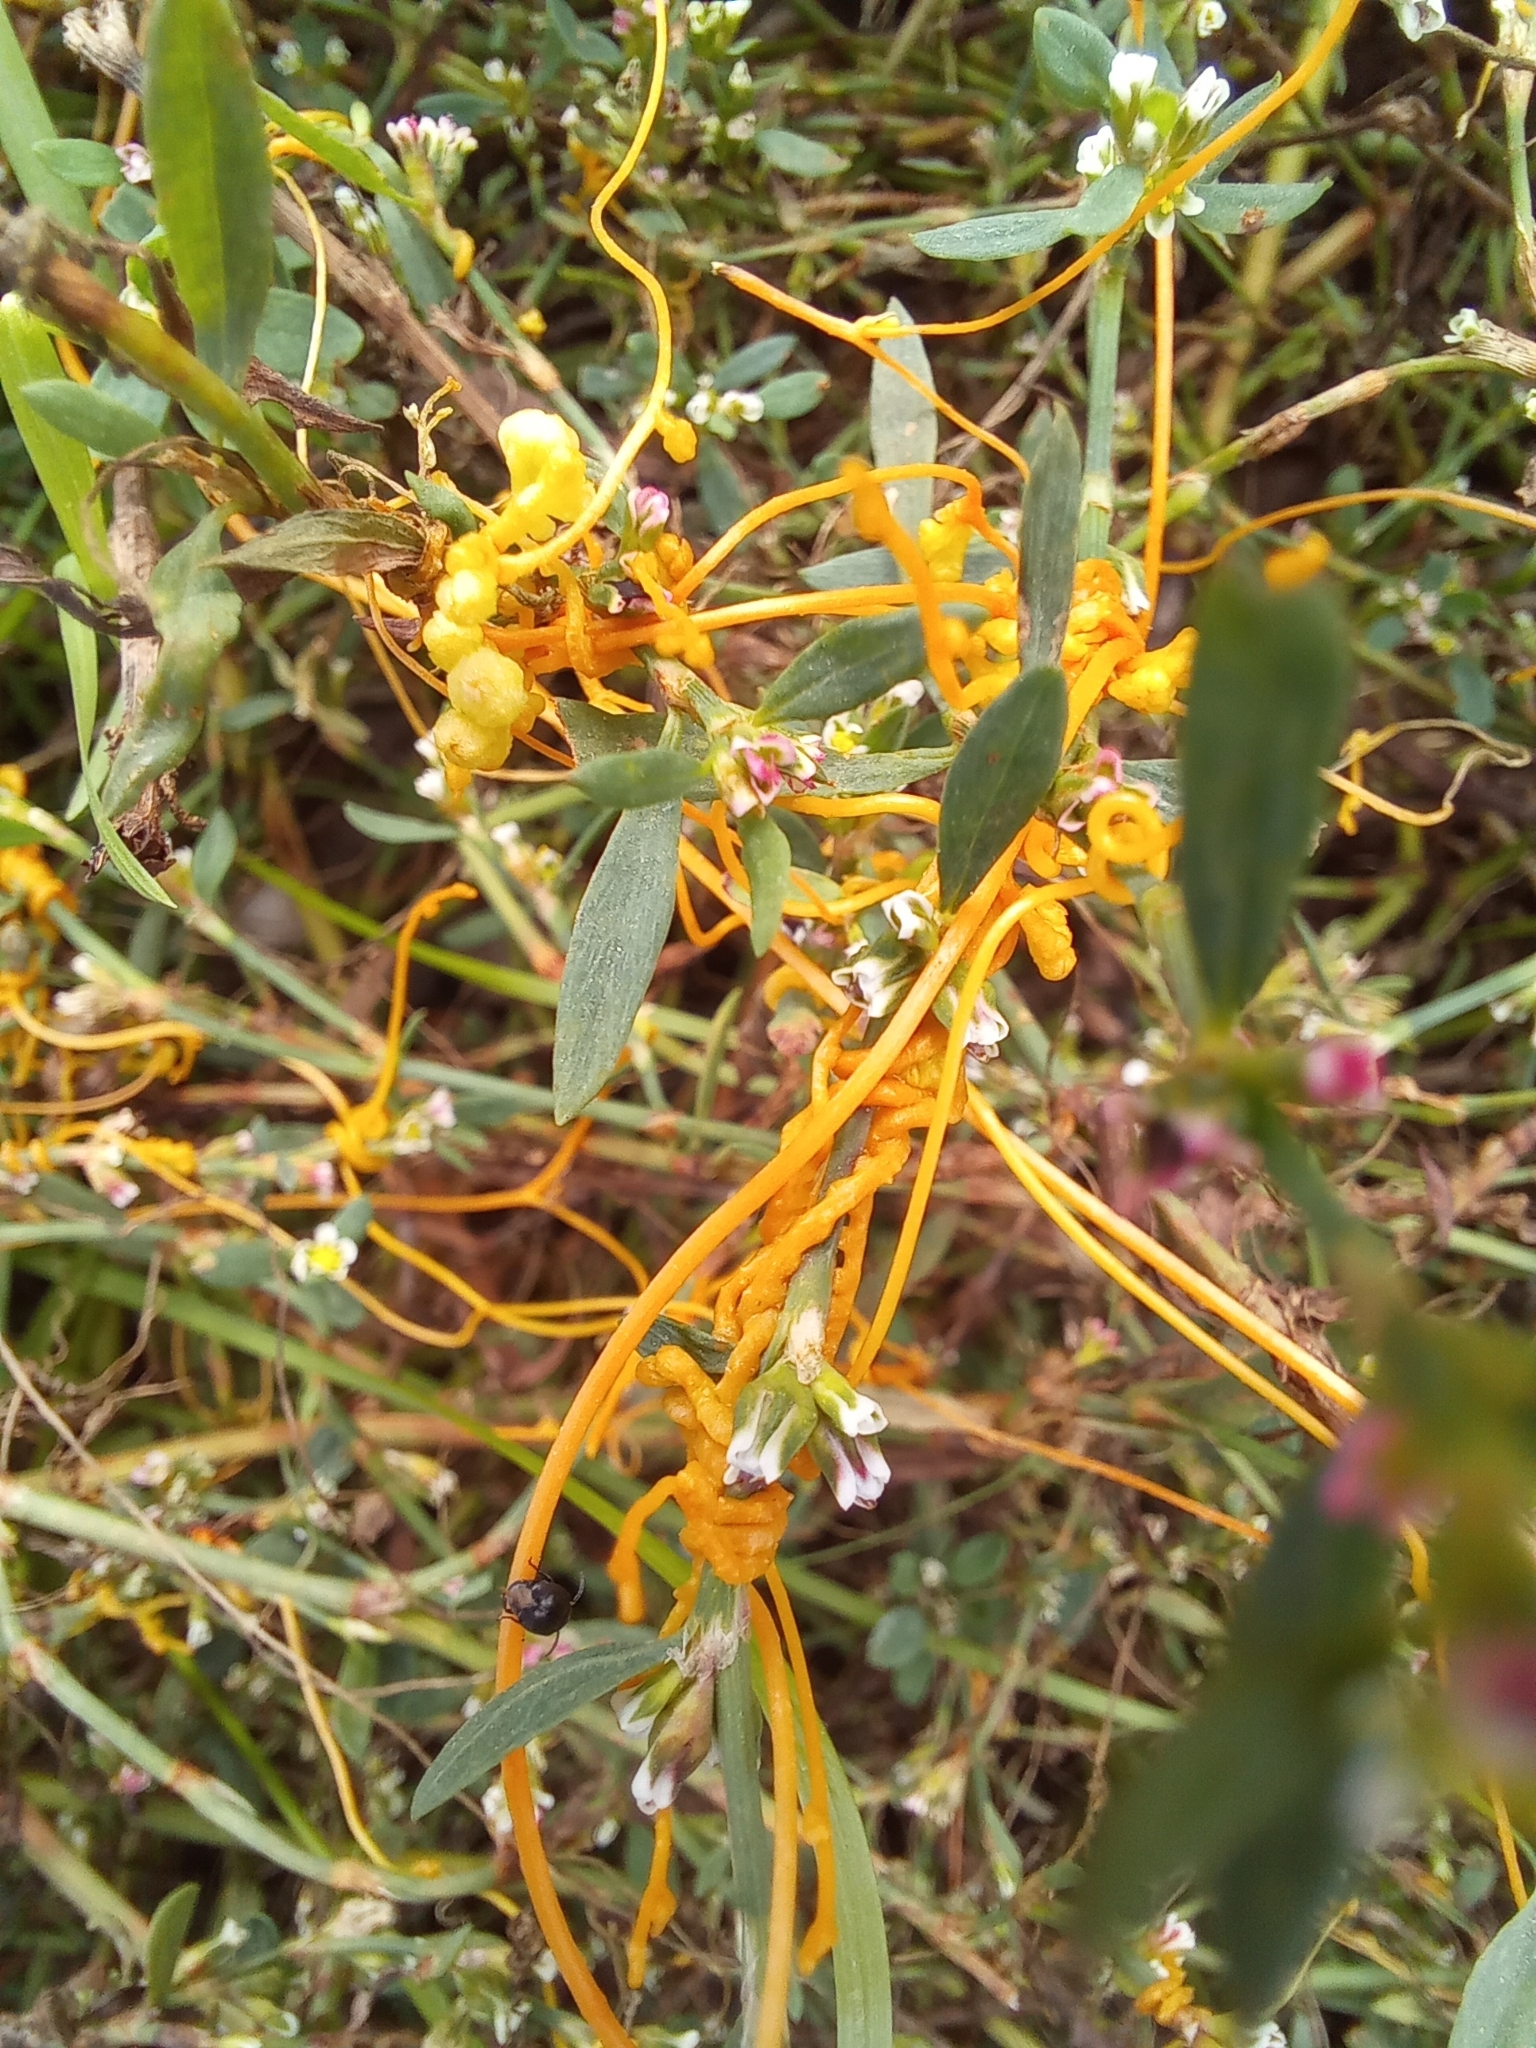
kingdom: Plantae
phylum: Tracheophyta
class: Magnoliopsida
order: Solanales
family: Convolvulaceae
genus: Cuscuta
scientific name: Cuscuta campestris
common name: Yellow dodder
